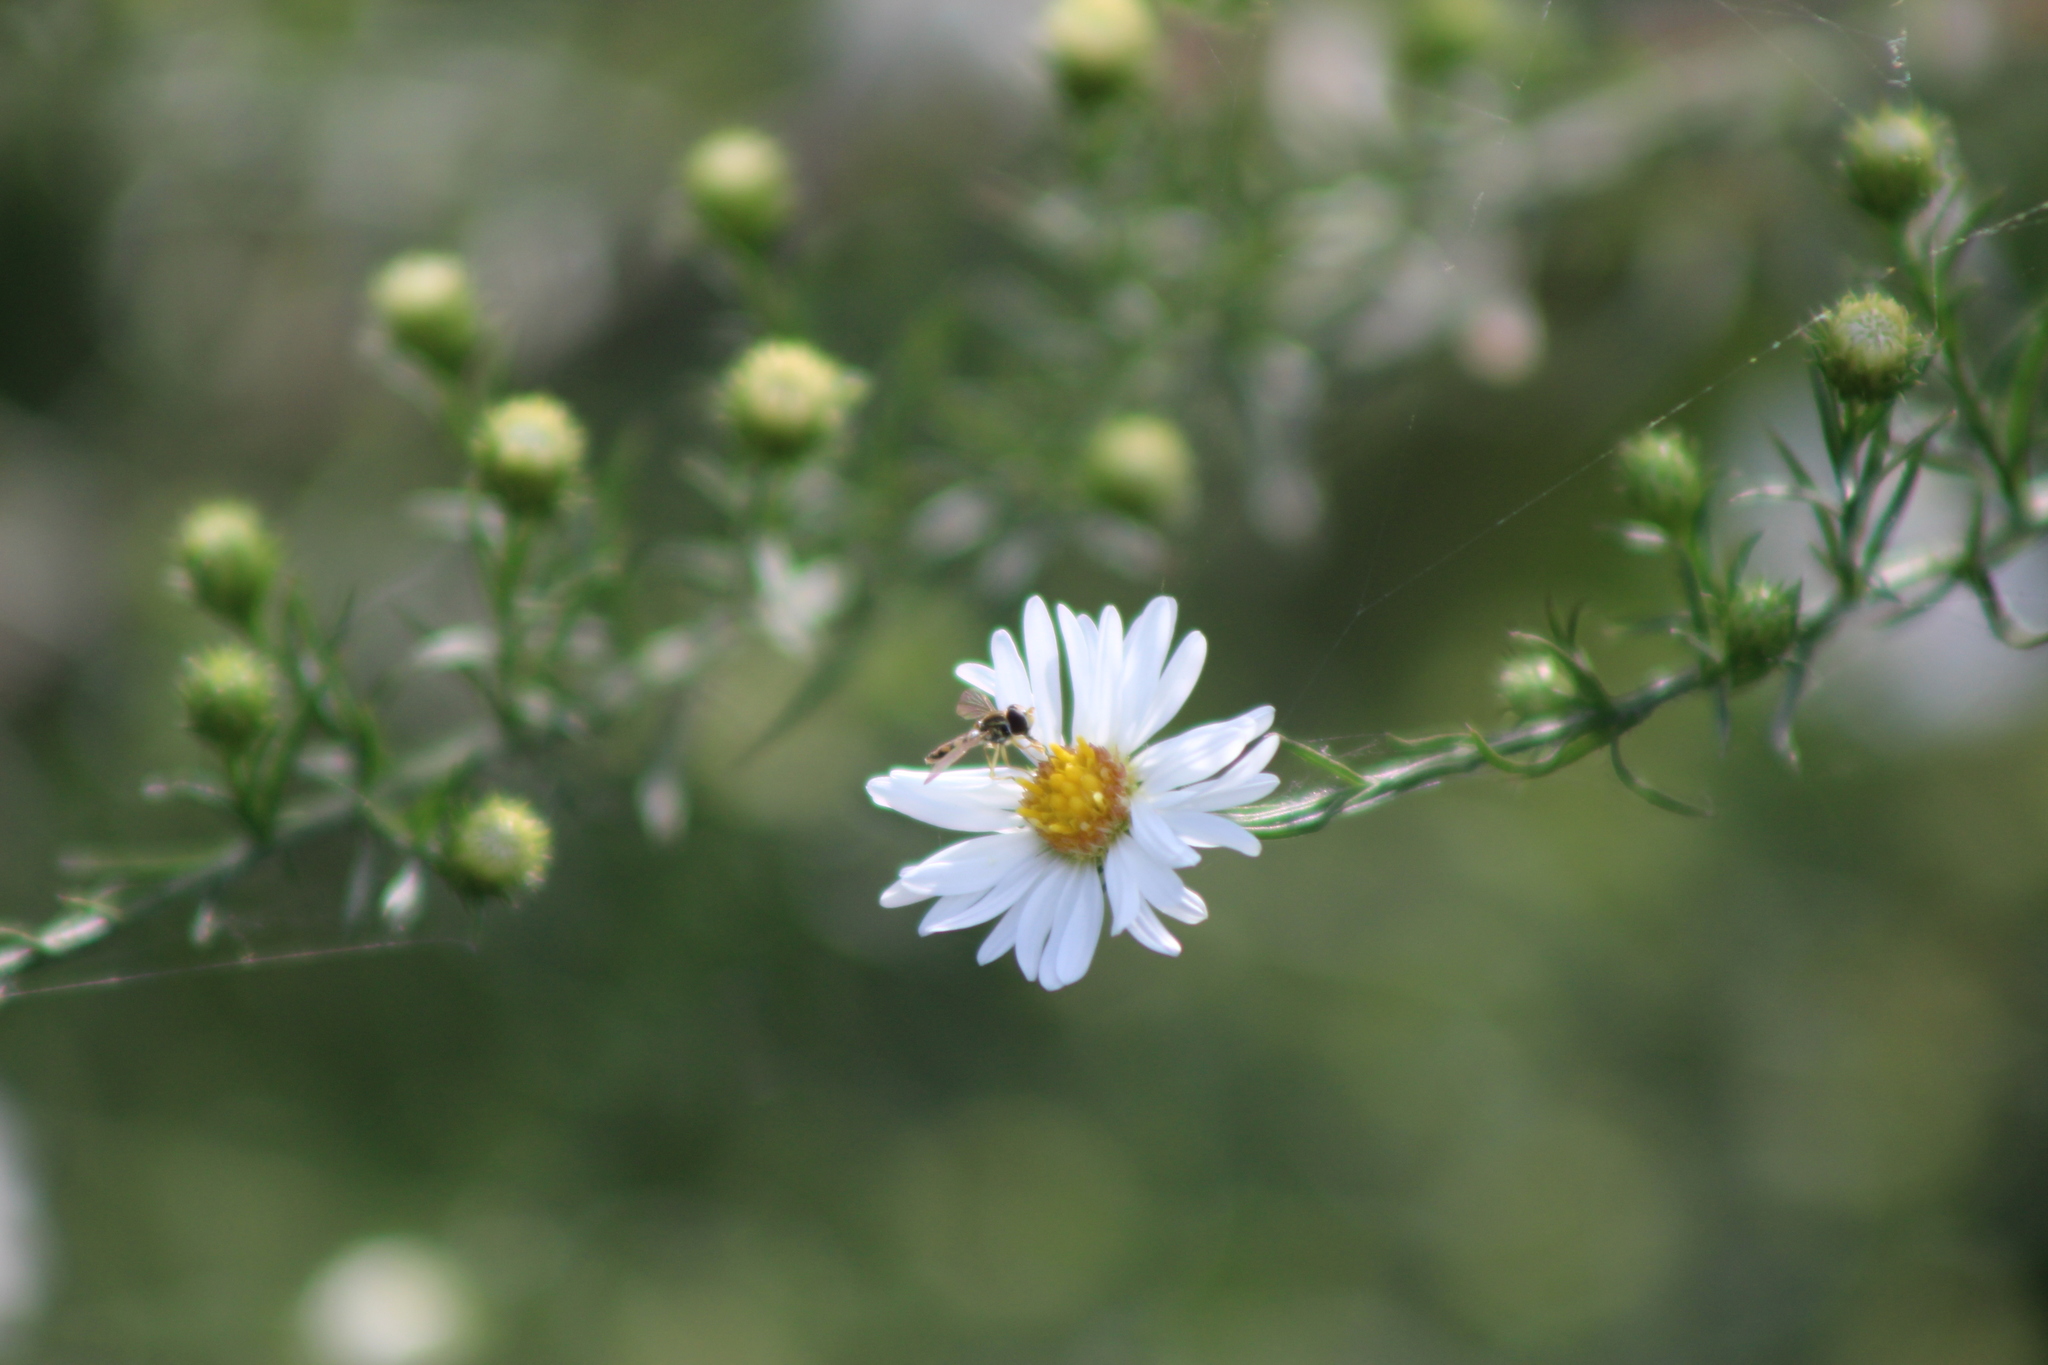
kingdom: Animalia
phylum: Arthropoda
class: Insecta
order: Diptera
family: Syrphidae
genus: Toxomerus
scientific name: Toxomerus marginatus
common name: Syrphid fly
